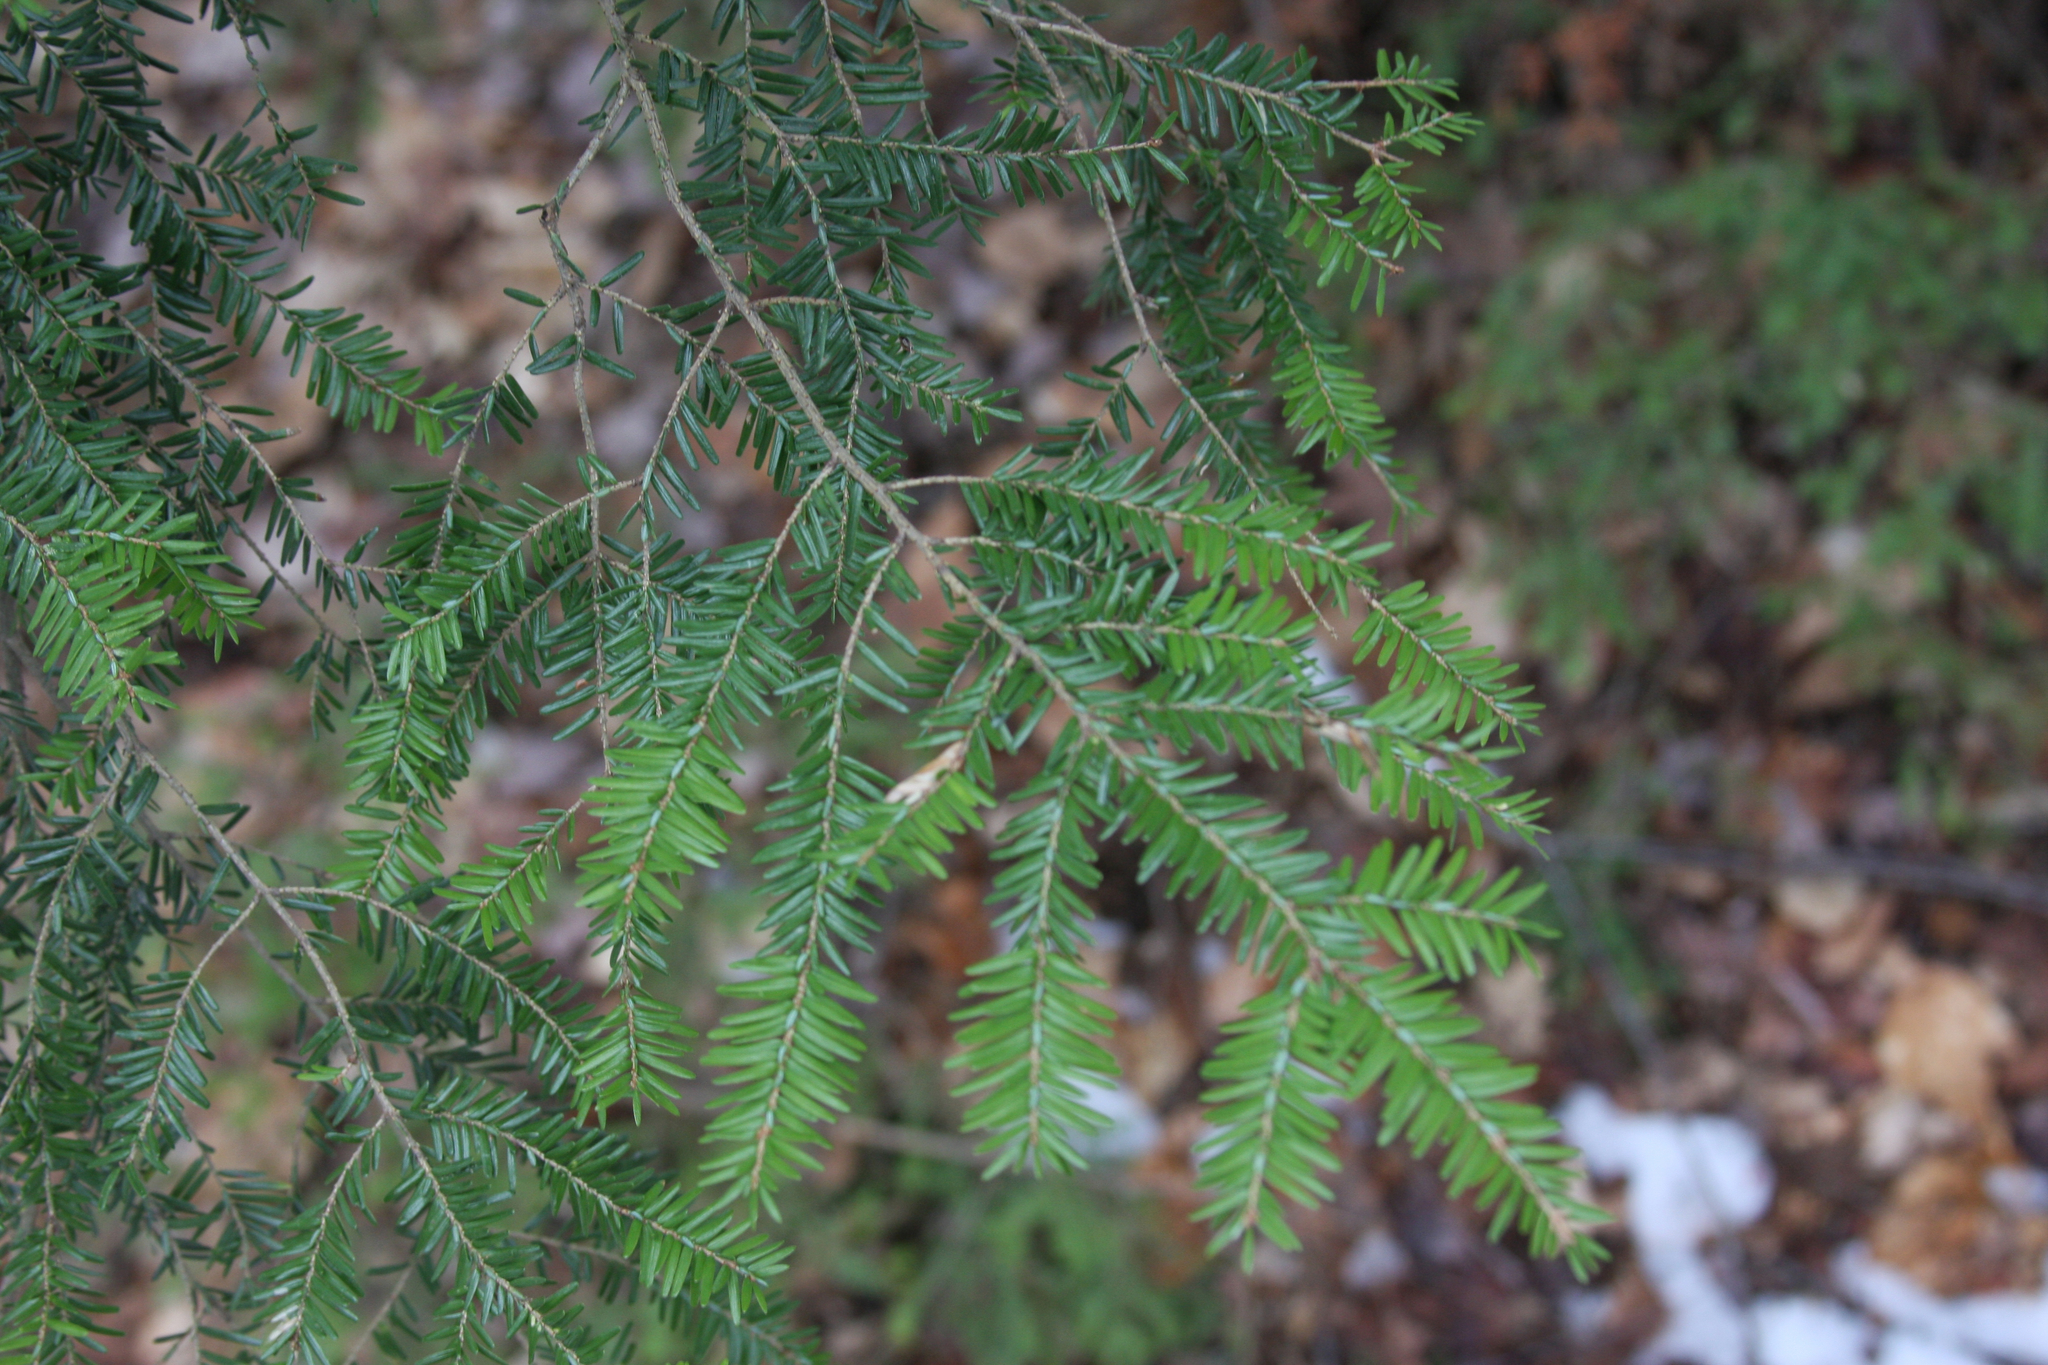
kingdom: Plantae
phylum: Tracheophyta
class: Pinopsida
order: Pinales
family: Pinaceae
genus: Tsuga
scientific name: Tsuga canadensis
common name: Eastern hemlock
